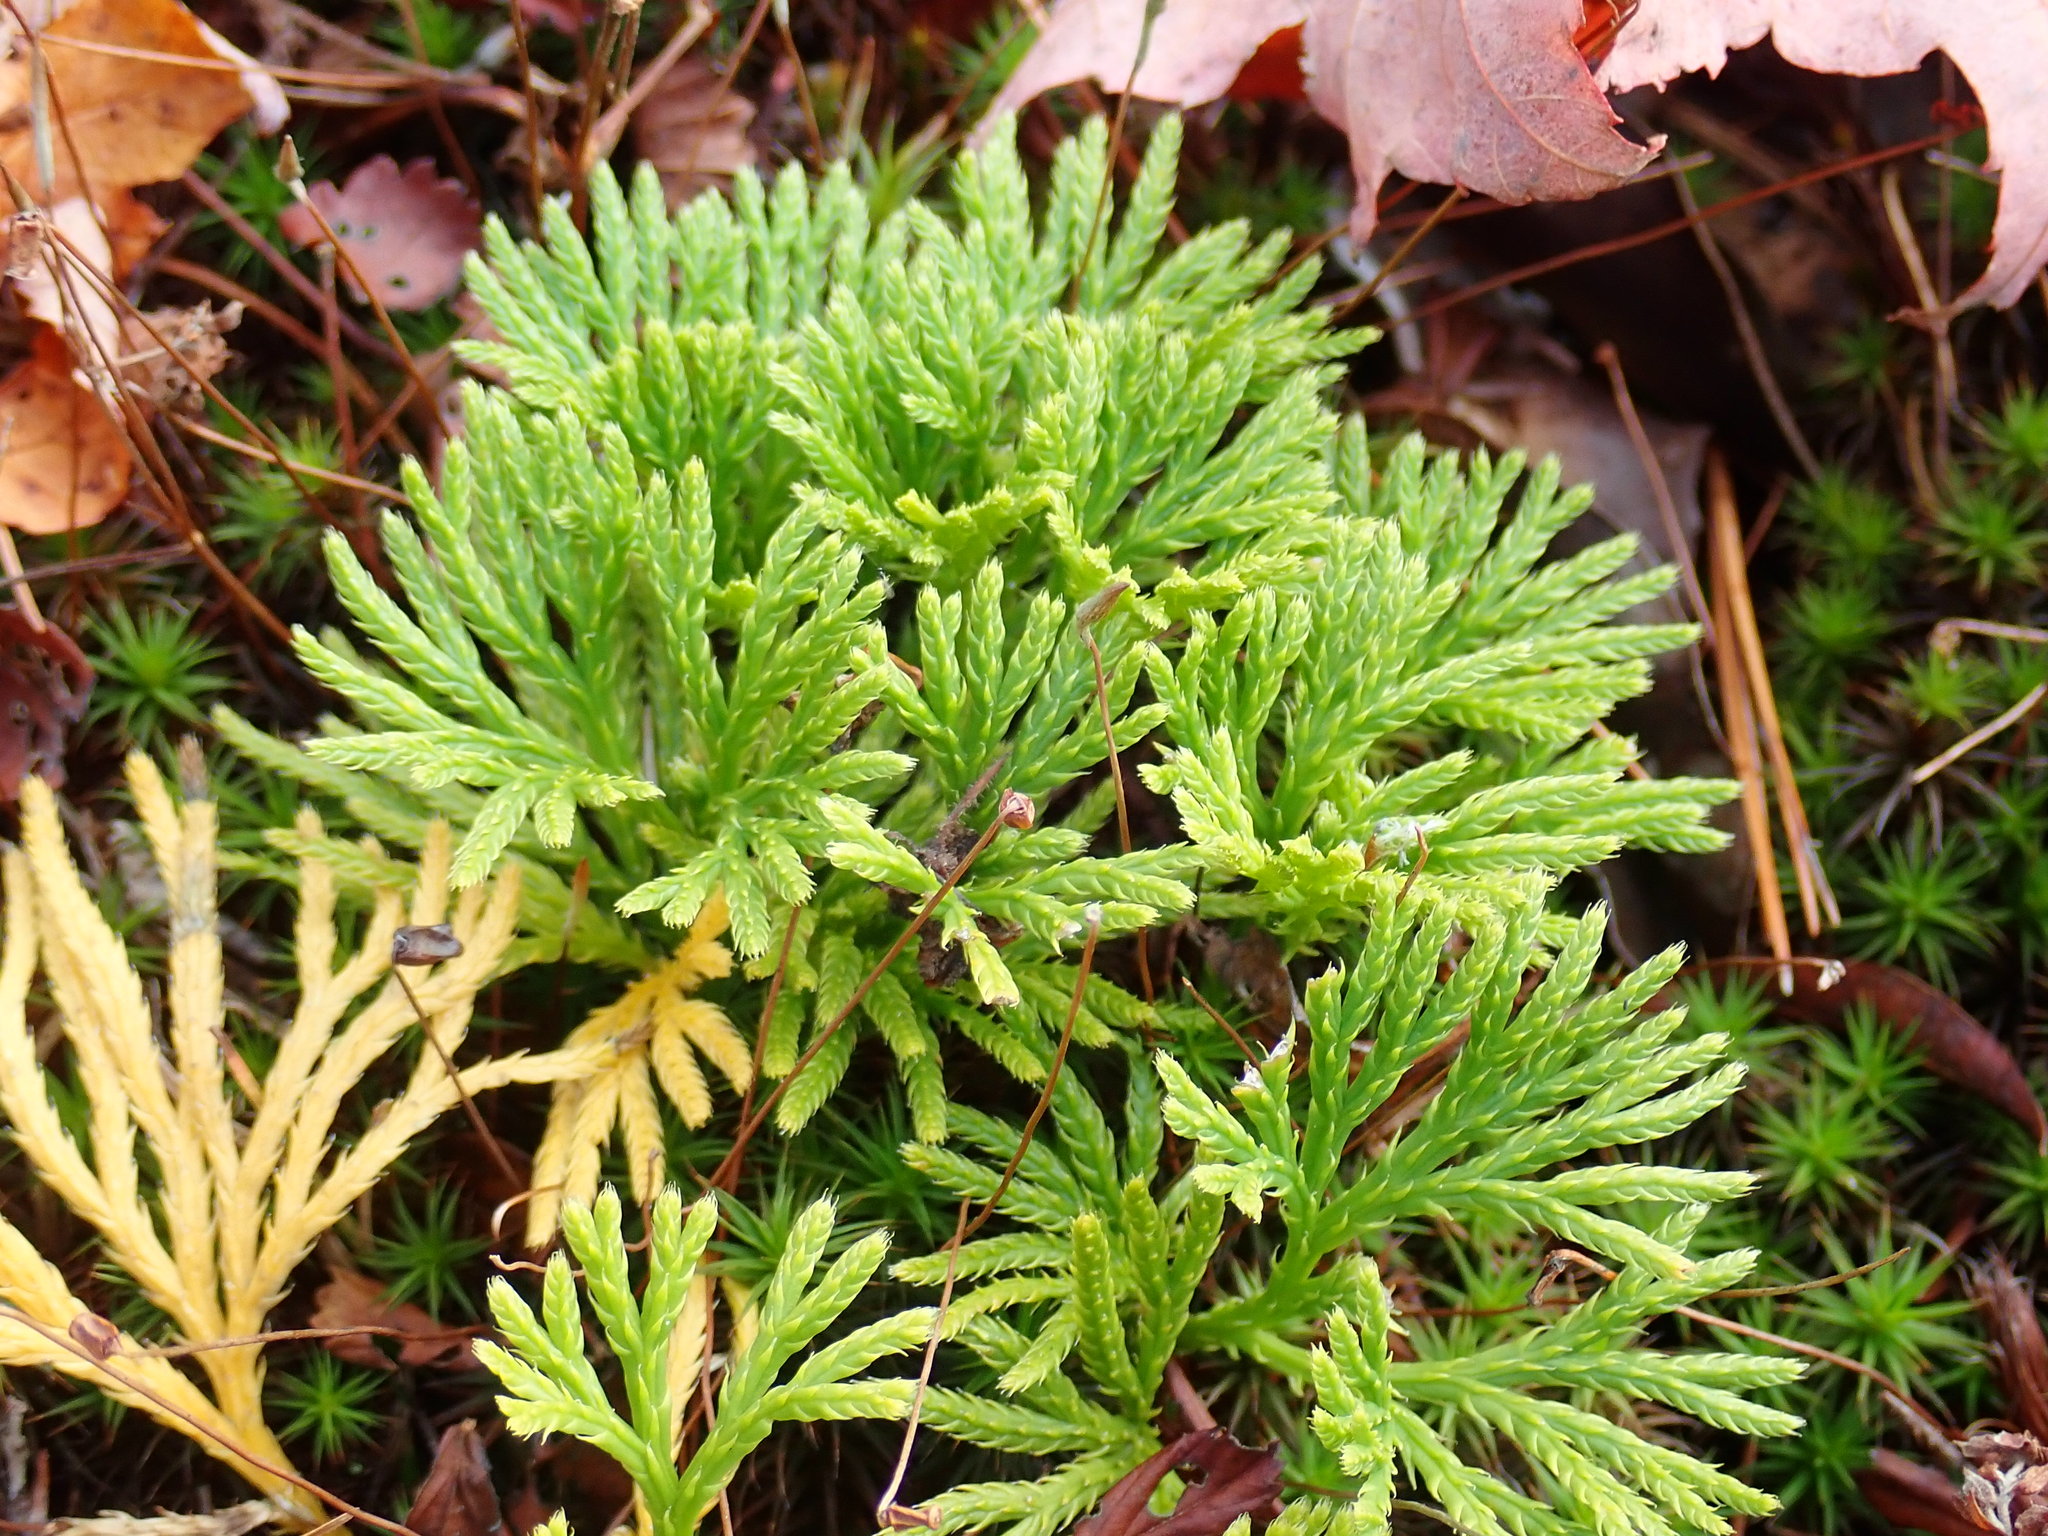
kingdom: Plantae
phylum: Tracheophyta
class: Lycopodiopsida
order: Lycopodiales
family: Lycopodiaceae
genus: Diphasiastrum
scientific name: Diphasiastrum tristachyum
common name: Blue ground-cedar
